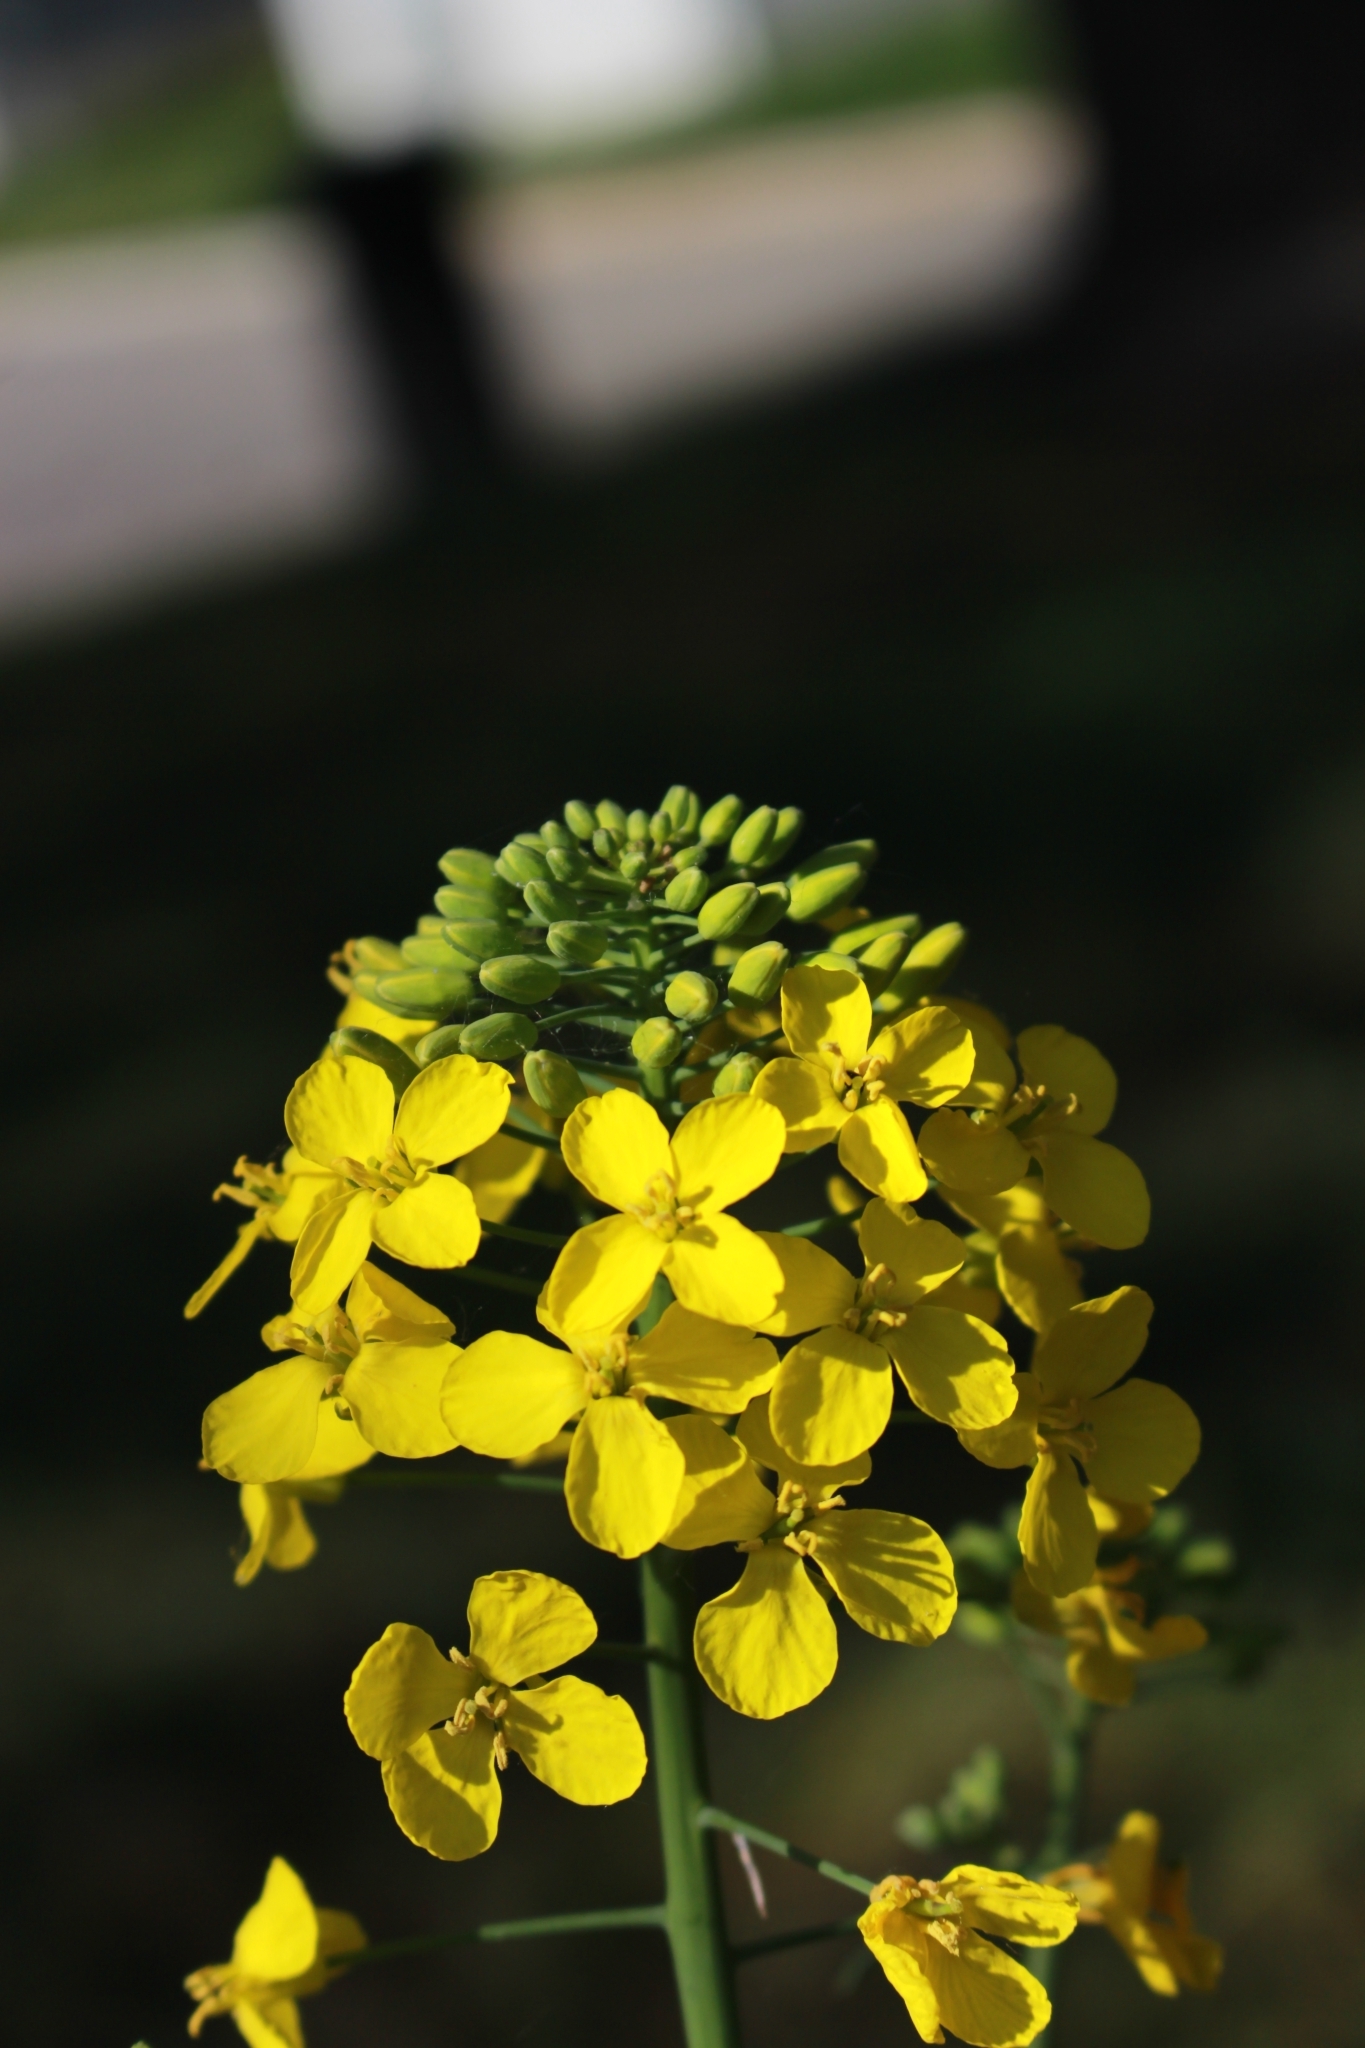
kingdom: Plantae
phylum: Tracheophyta
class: Magnoliopsida
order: Brassicales
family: Brassicaceae
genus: Brassica
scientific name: Brassica napus
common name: Rape
